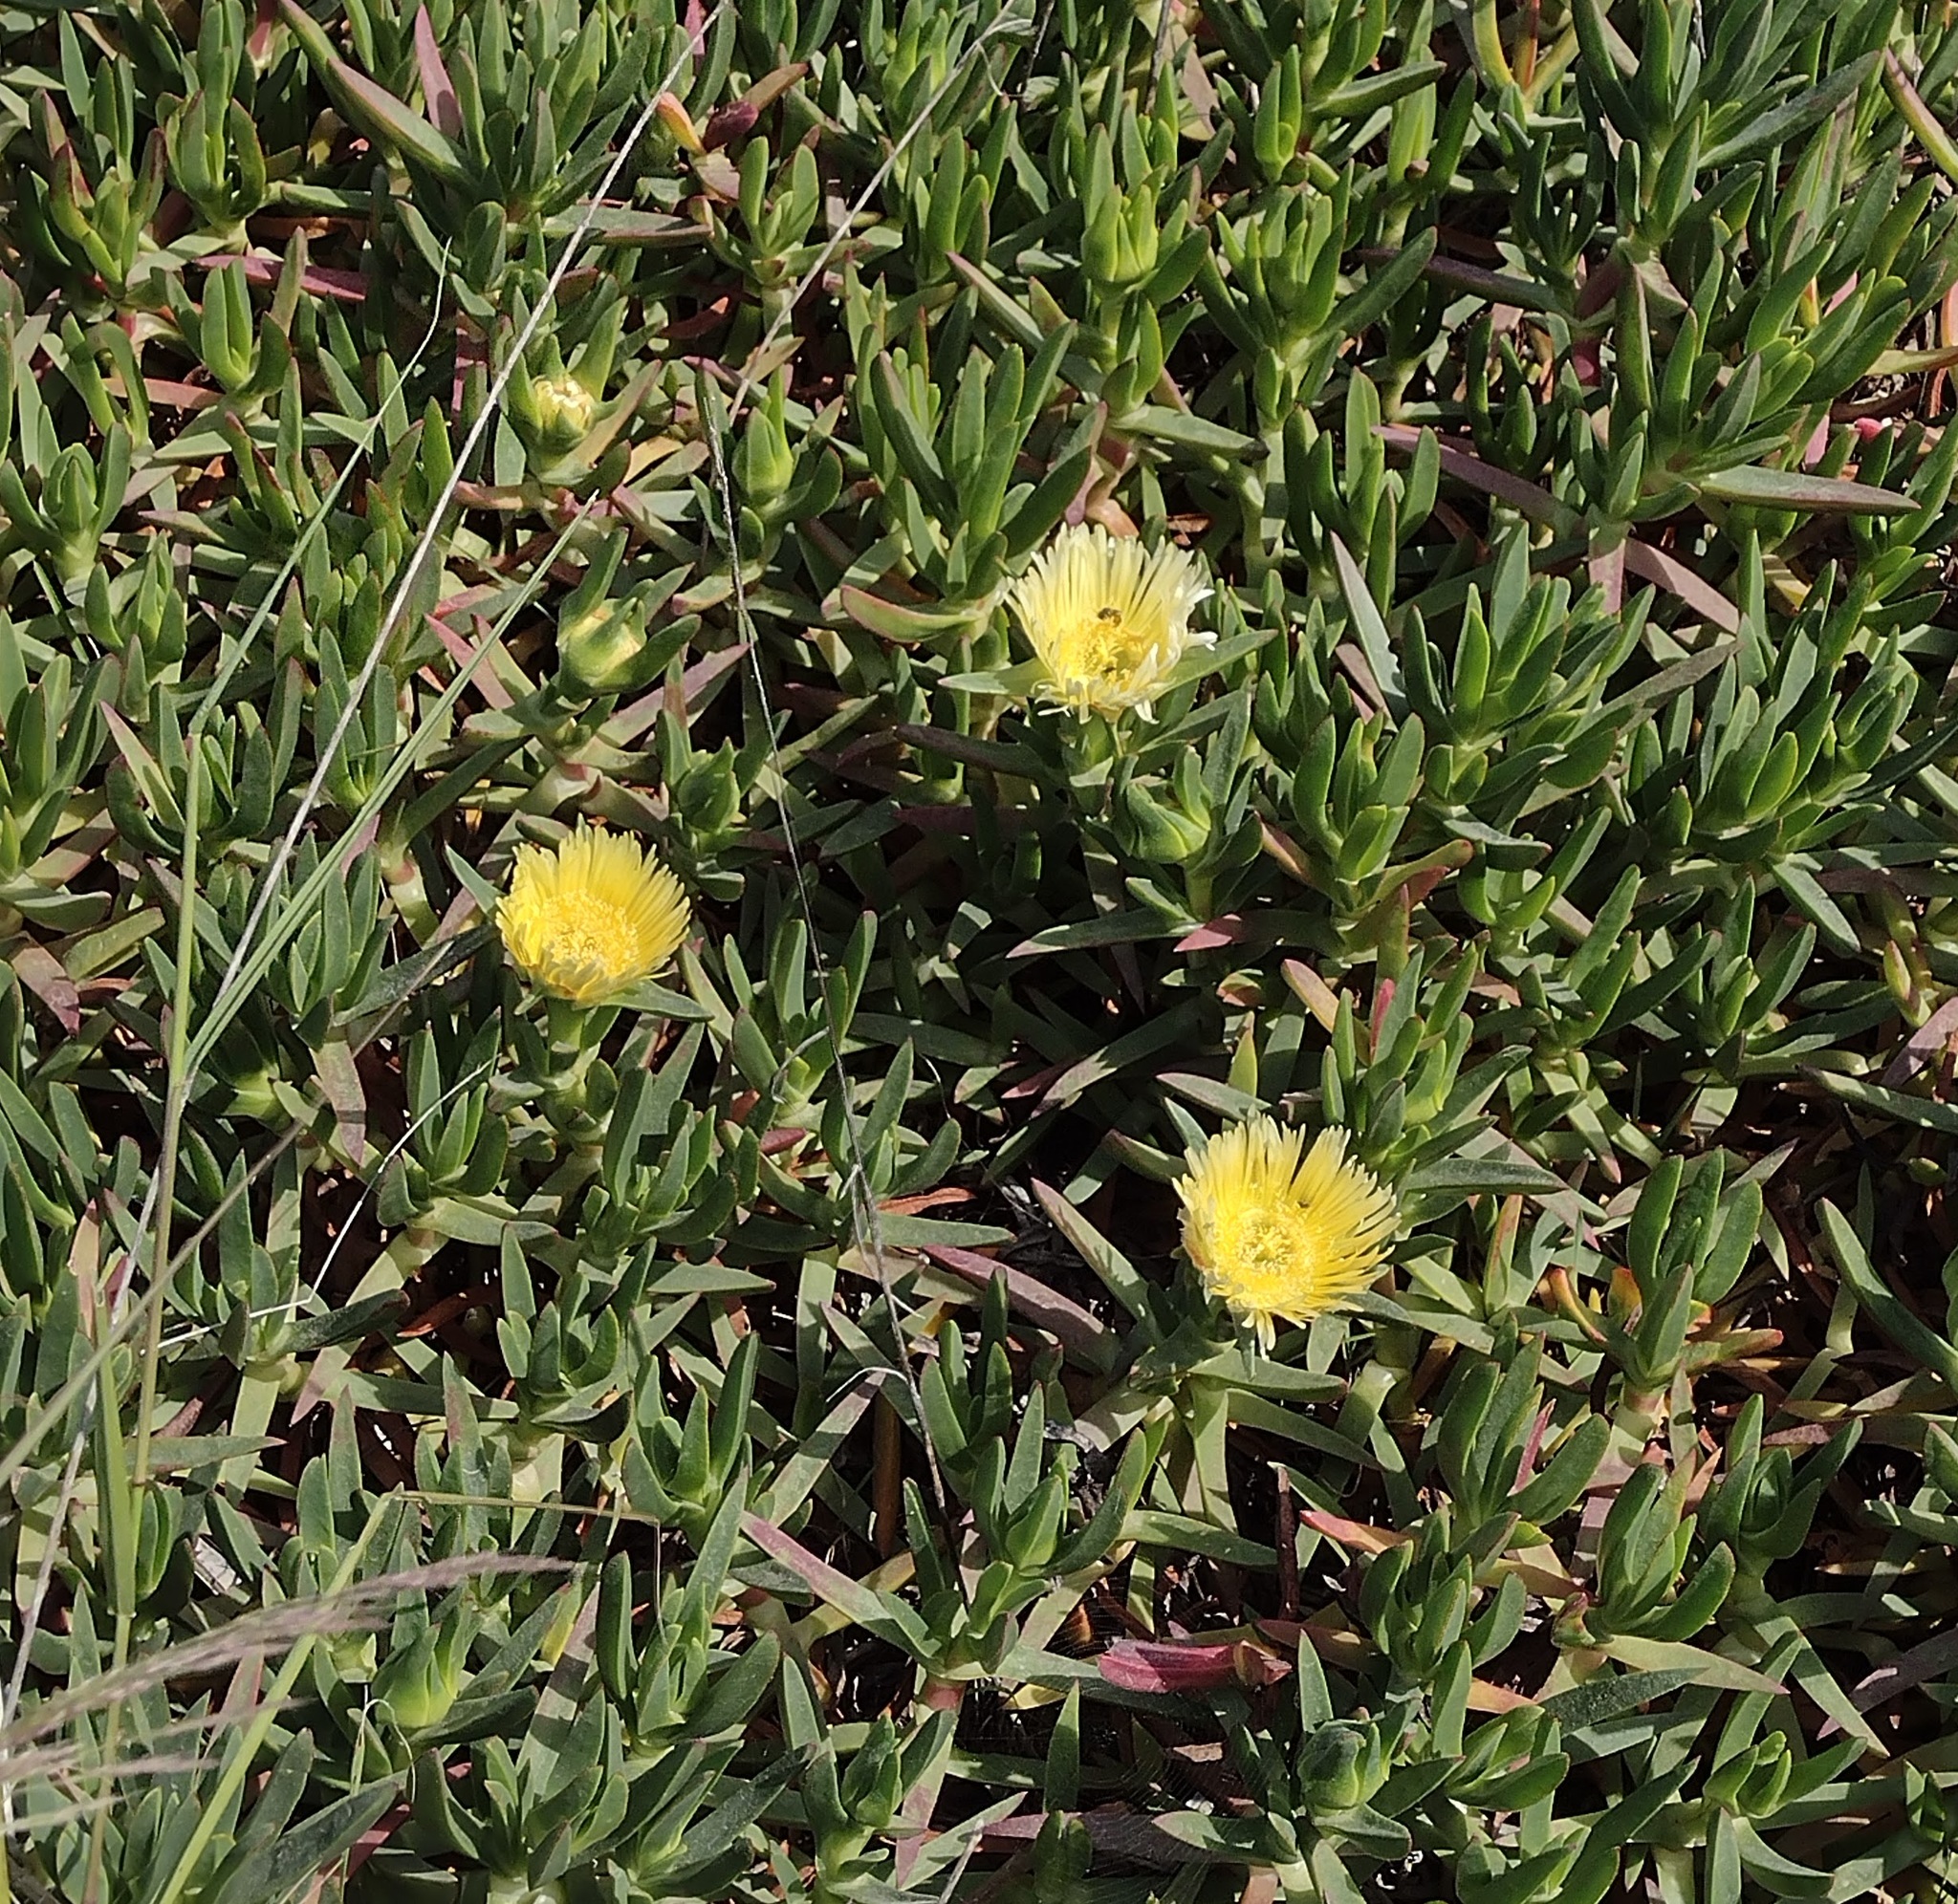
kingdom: Plantae
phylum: Tracheophyta
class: Magnoliopsida
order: Caryophyllales
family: Aizoaceae
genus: Carpobrotus
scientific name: Carpobrotus edulis
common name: Hottentot-fig
